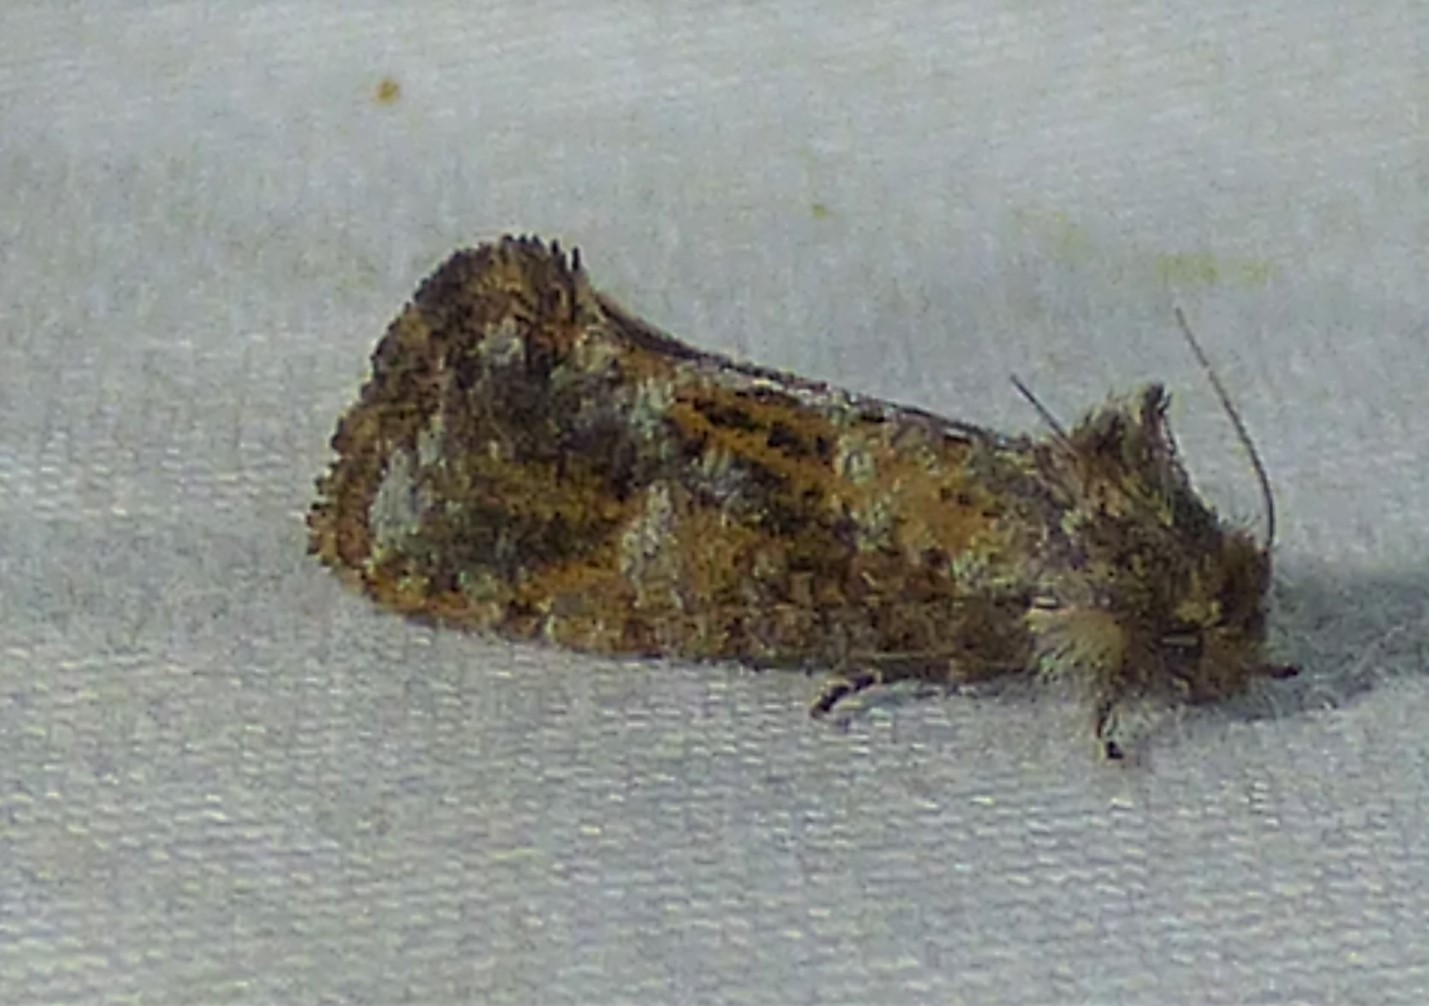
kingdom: Animalia
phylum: Arthropoda
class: Insecta
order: Lepidoptera
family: Tineidae
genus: Acrolophus
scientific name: Acrolophus panamae
